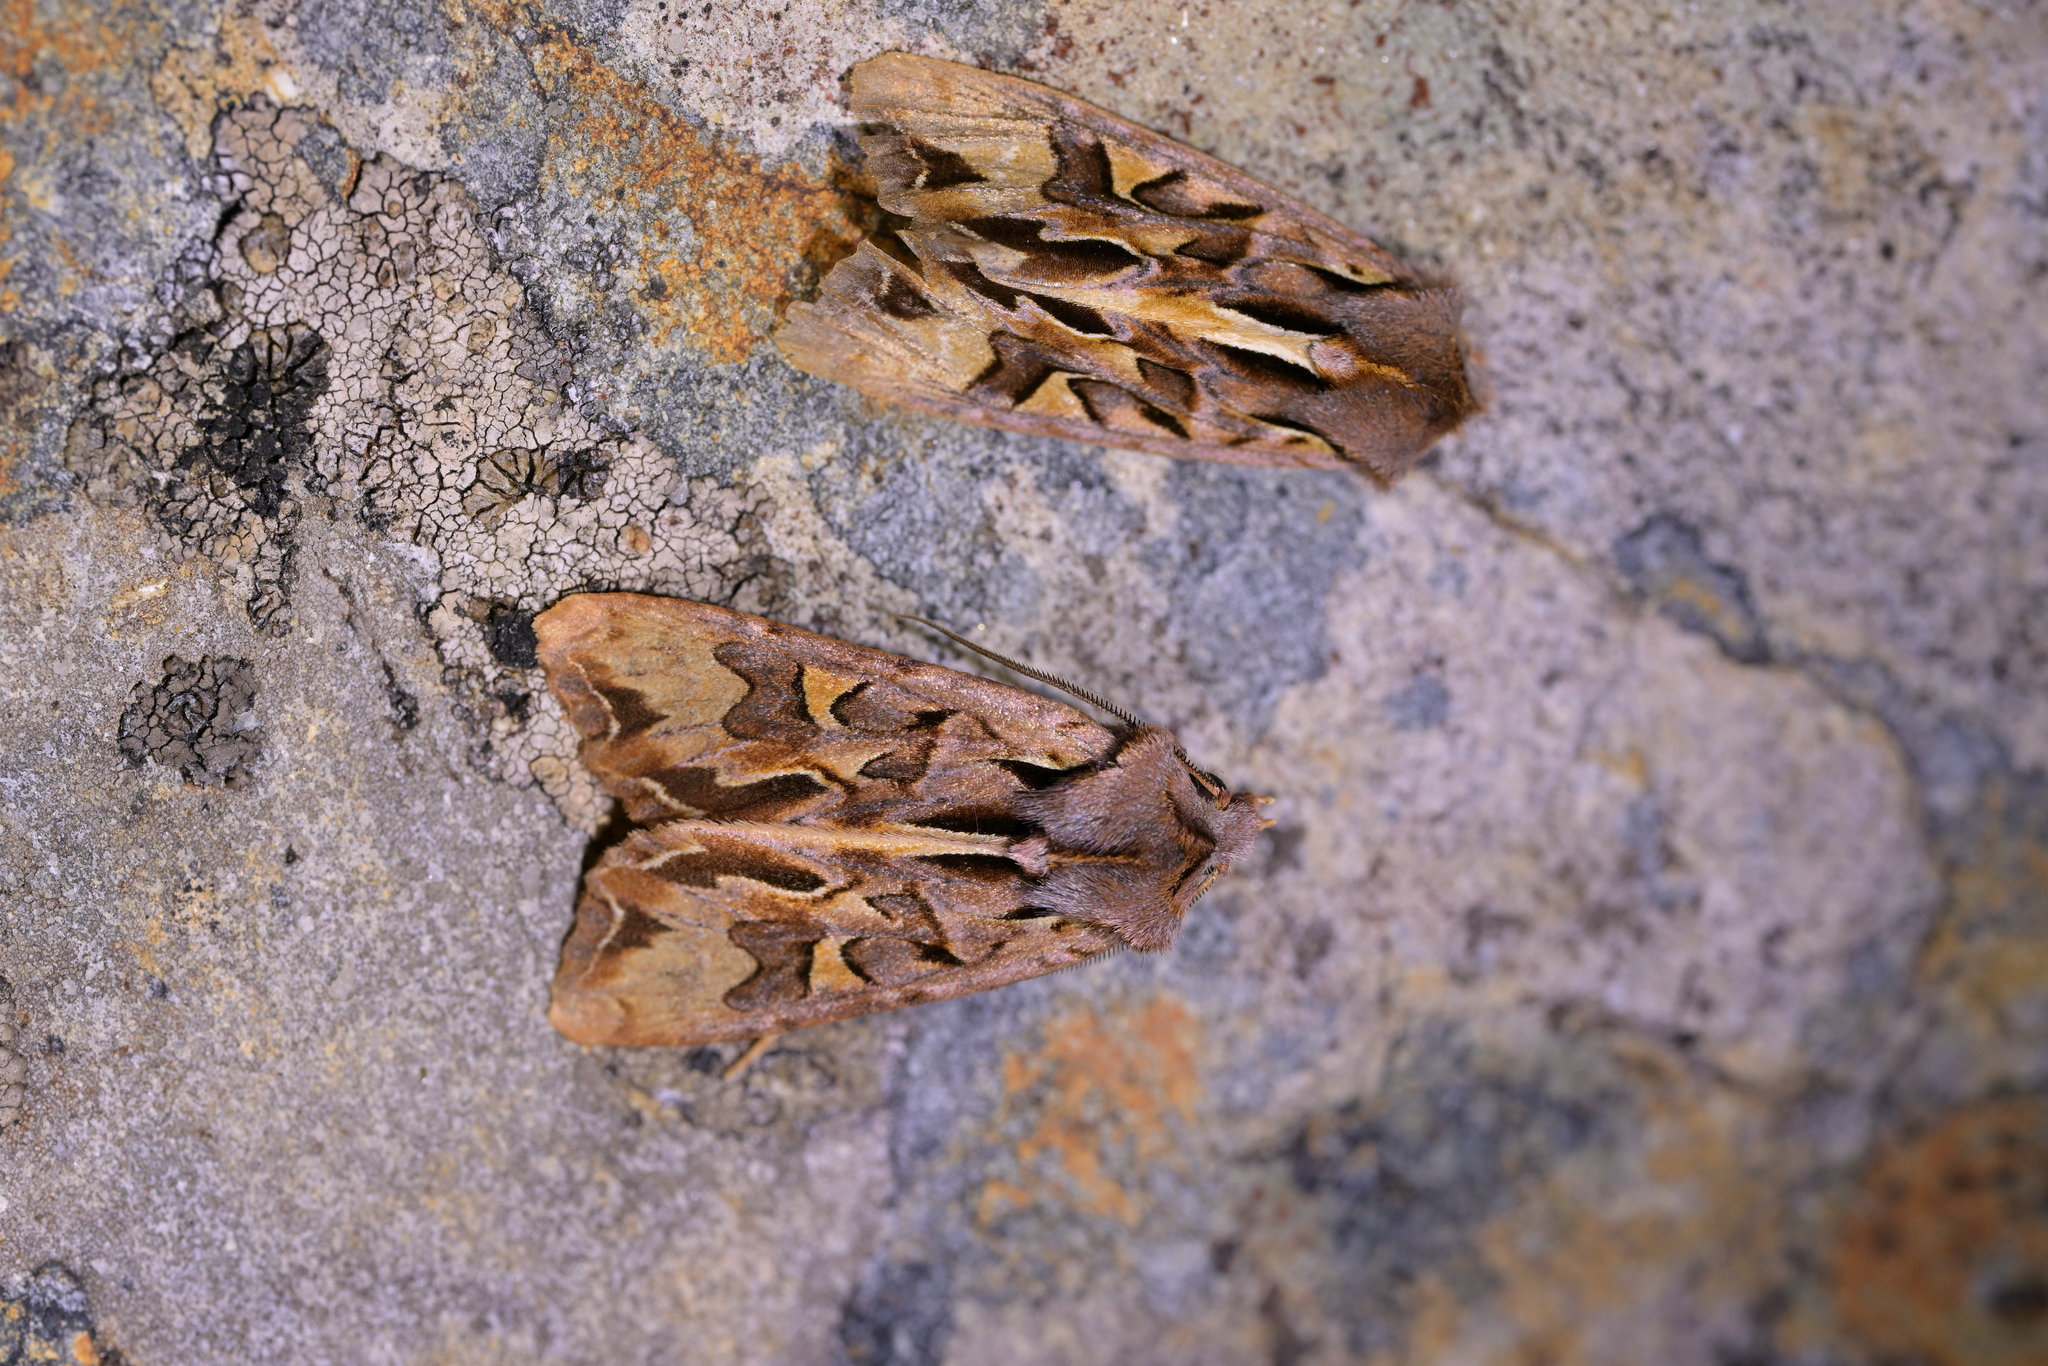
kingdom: Animalia
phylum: Arthropoda
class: Insecta
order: Lepidoptera
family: Noctuidae
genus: Ichneutica
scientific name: Ichneutica
